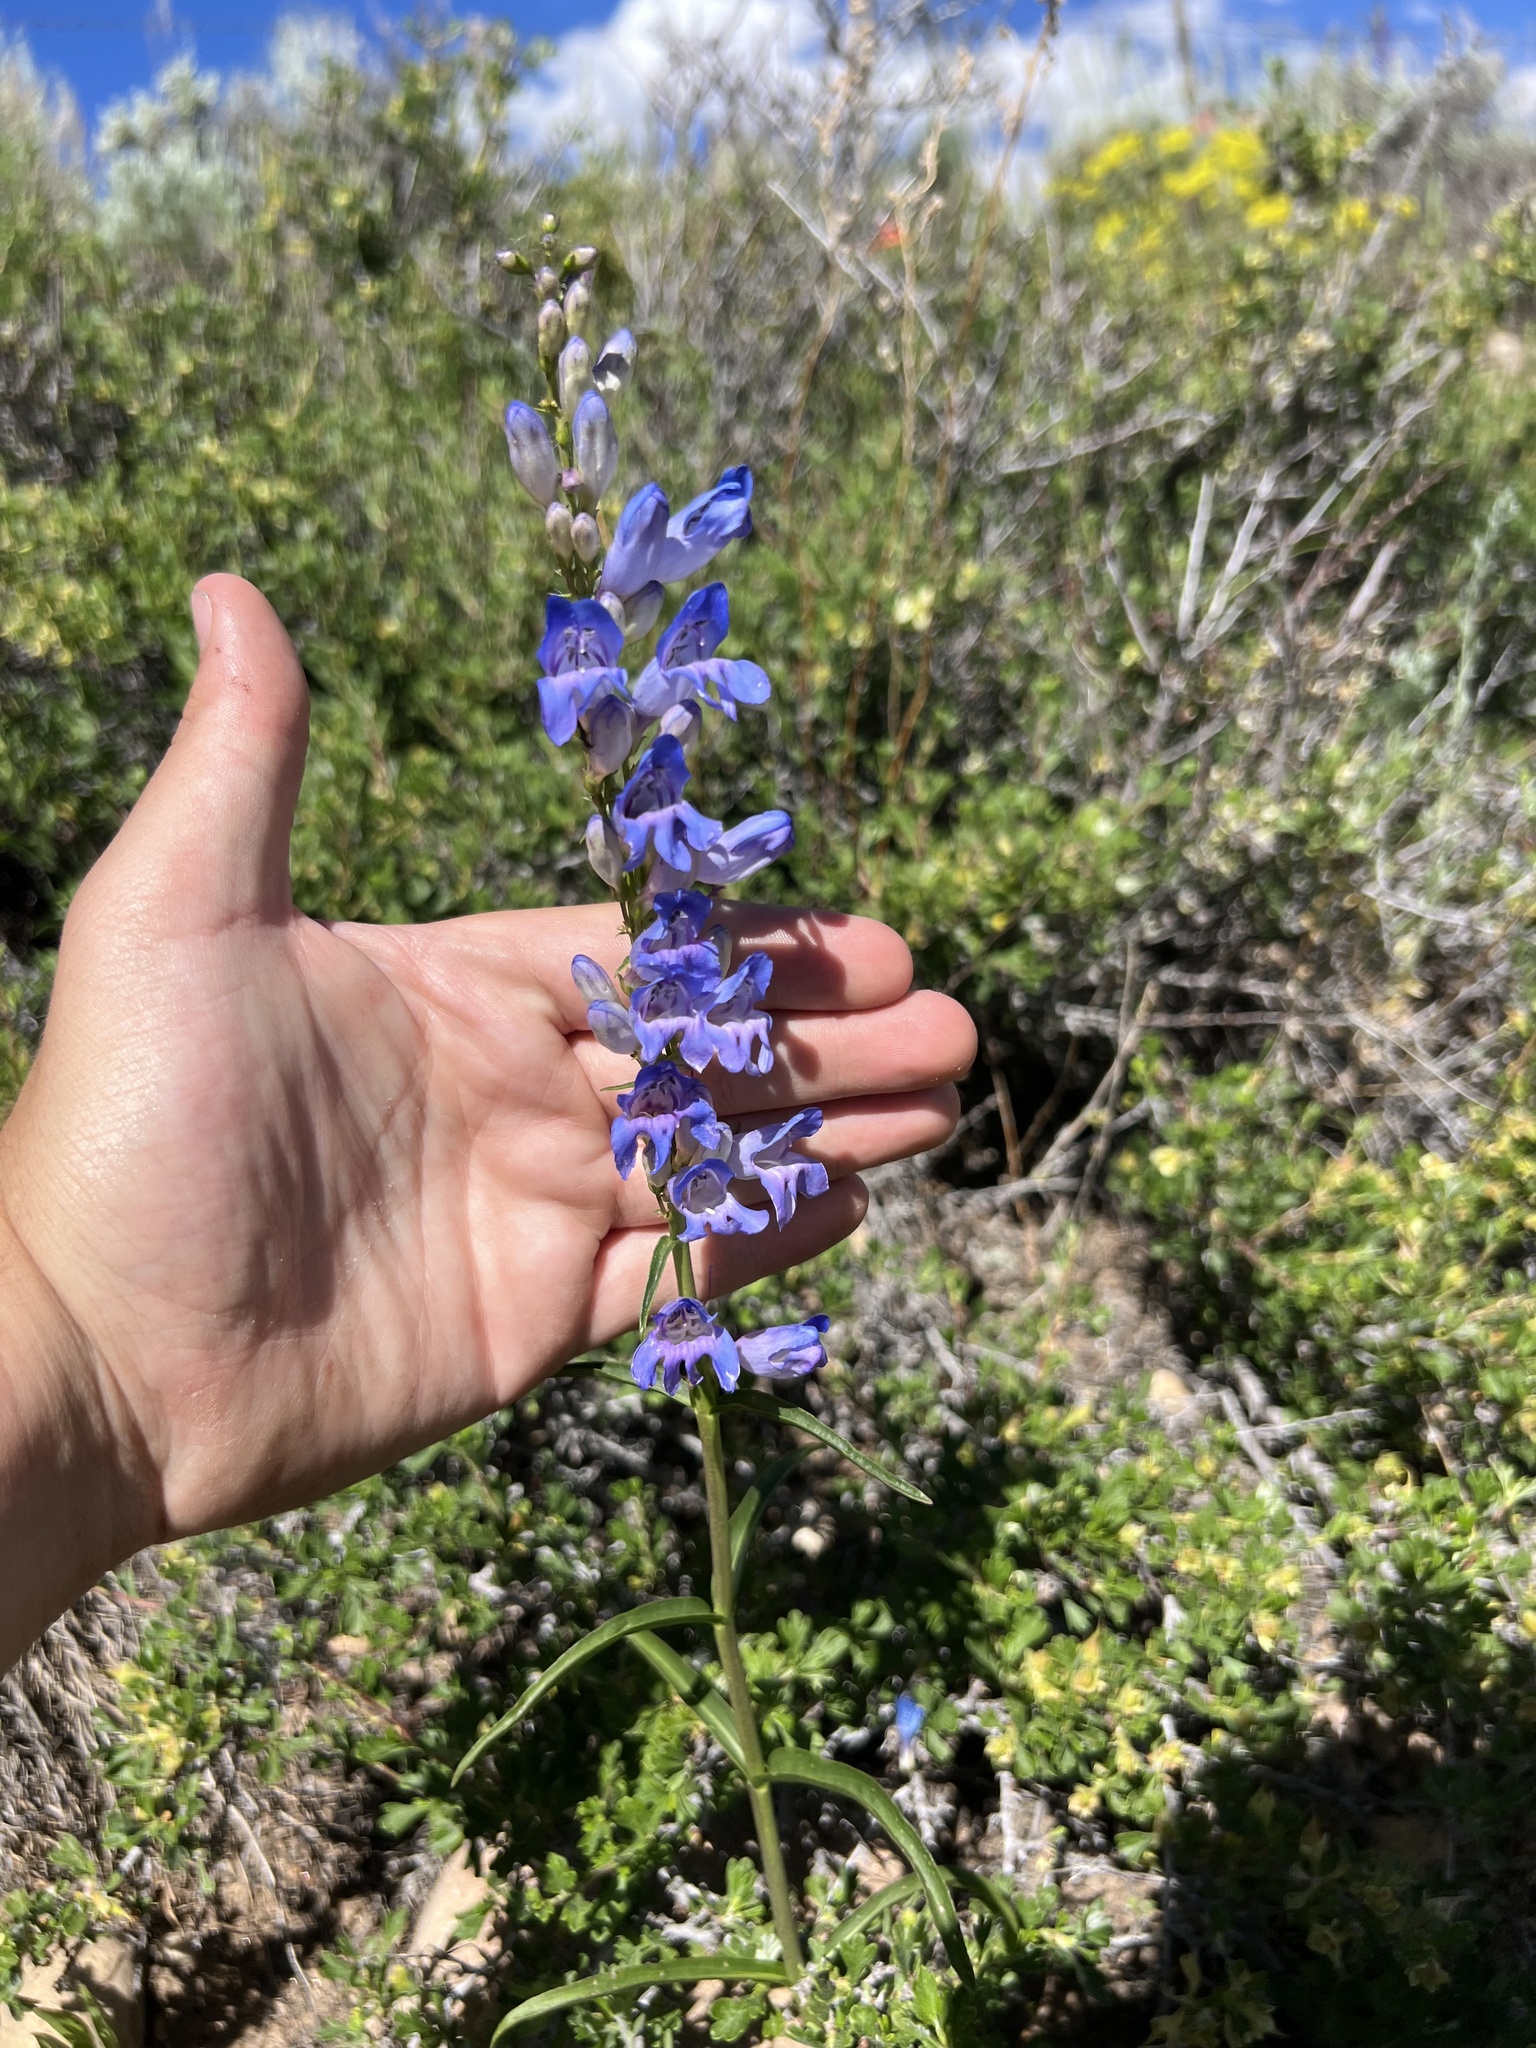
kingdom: Plantae
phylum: Tracheophyta
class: Magnoliopsida
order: Lamiales
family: Plantaginaceae
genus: Penstemon
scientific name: Penstemon strictus
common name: Rocky mountain penstemon
